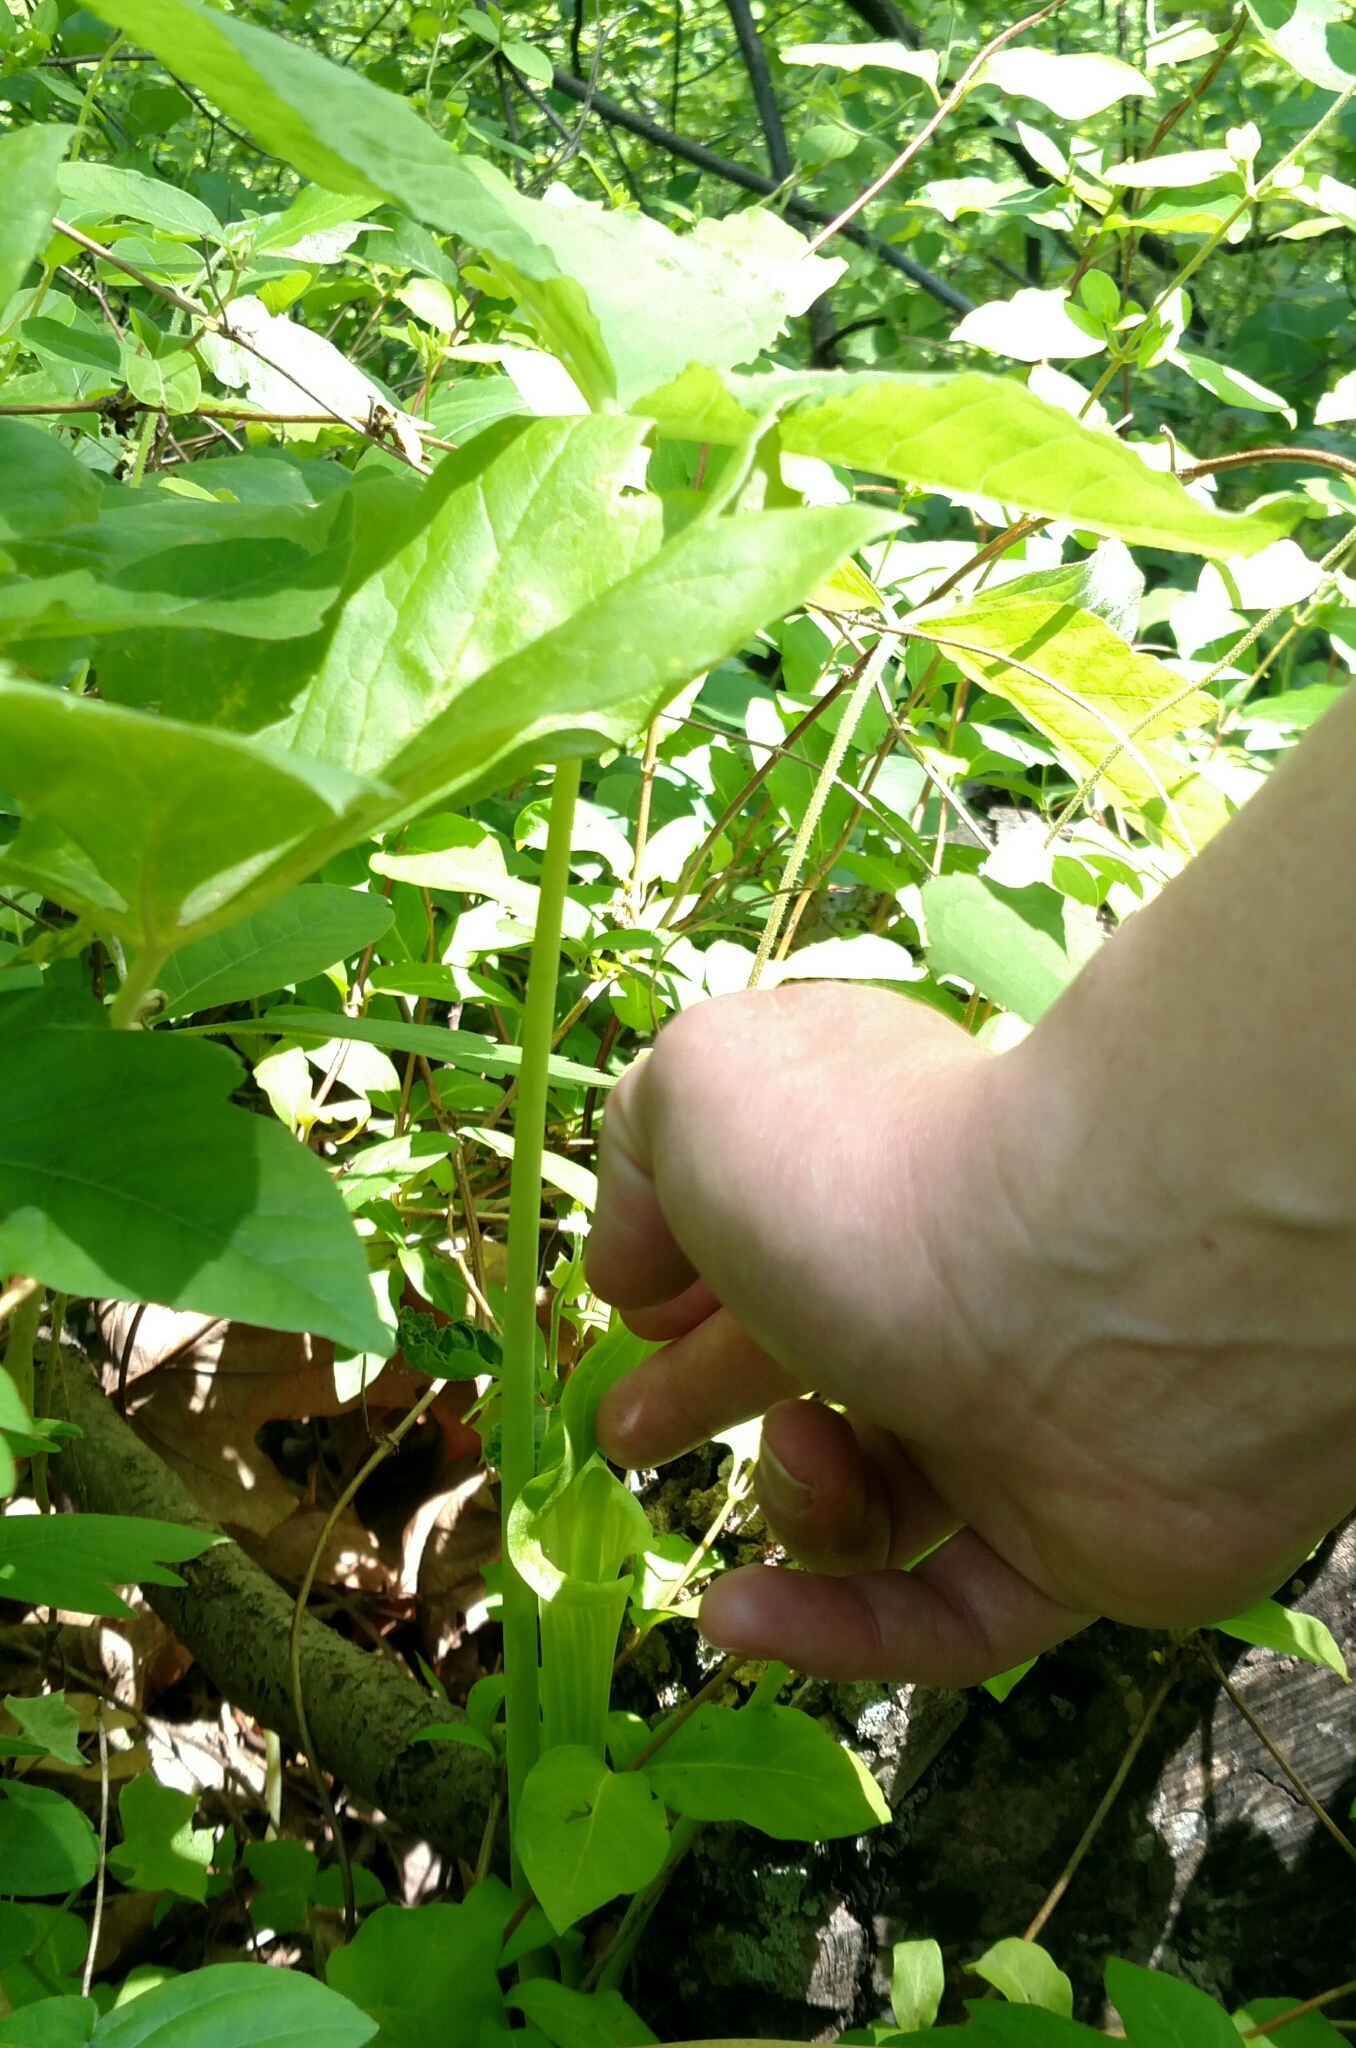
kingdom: Plantae
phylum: Tracheophyta
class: Liliopsida
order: Alismatales
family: Araceae
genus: Arisaema
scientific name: Arisaema triphyllum
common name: Jack-in-the-pulpit
